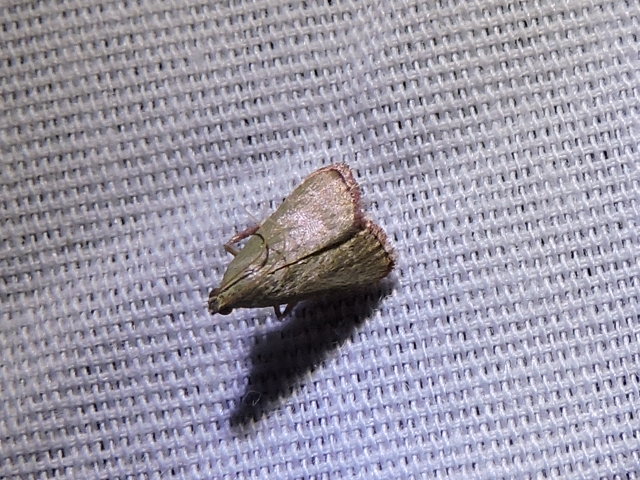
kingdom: Animalia
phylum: Arthropoda
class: Insecta
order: Lepidoptera
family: Pyralidae
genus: Arta
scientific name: Arta olivalis
